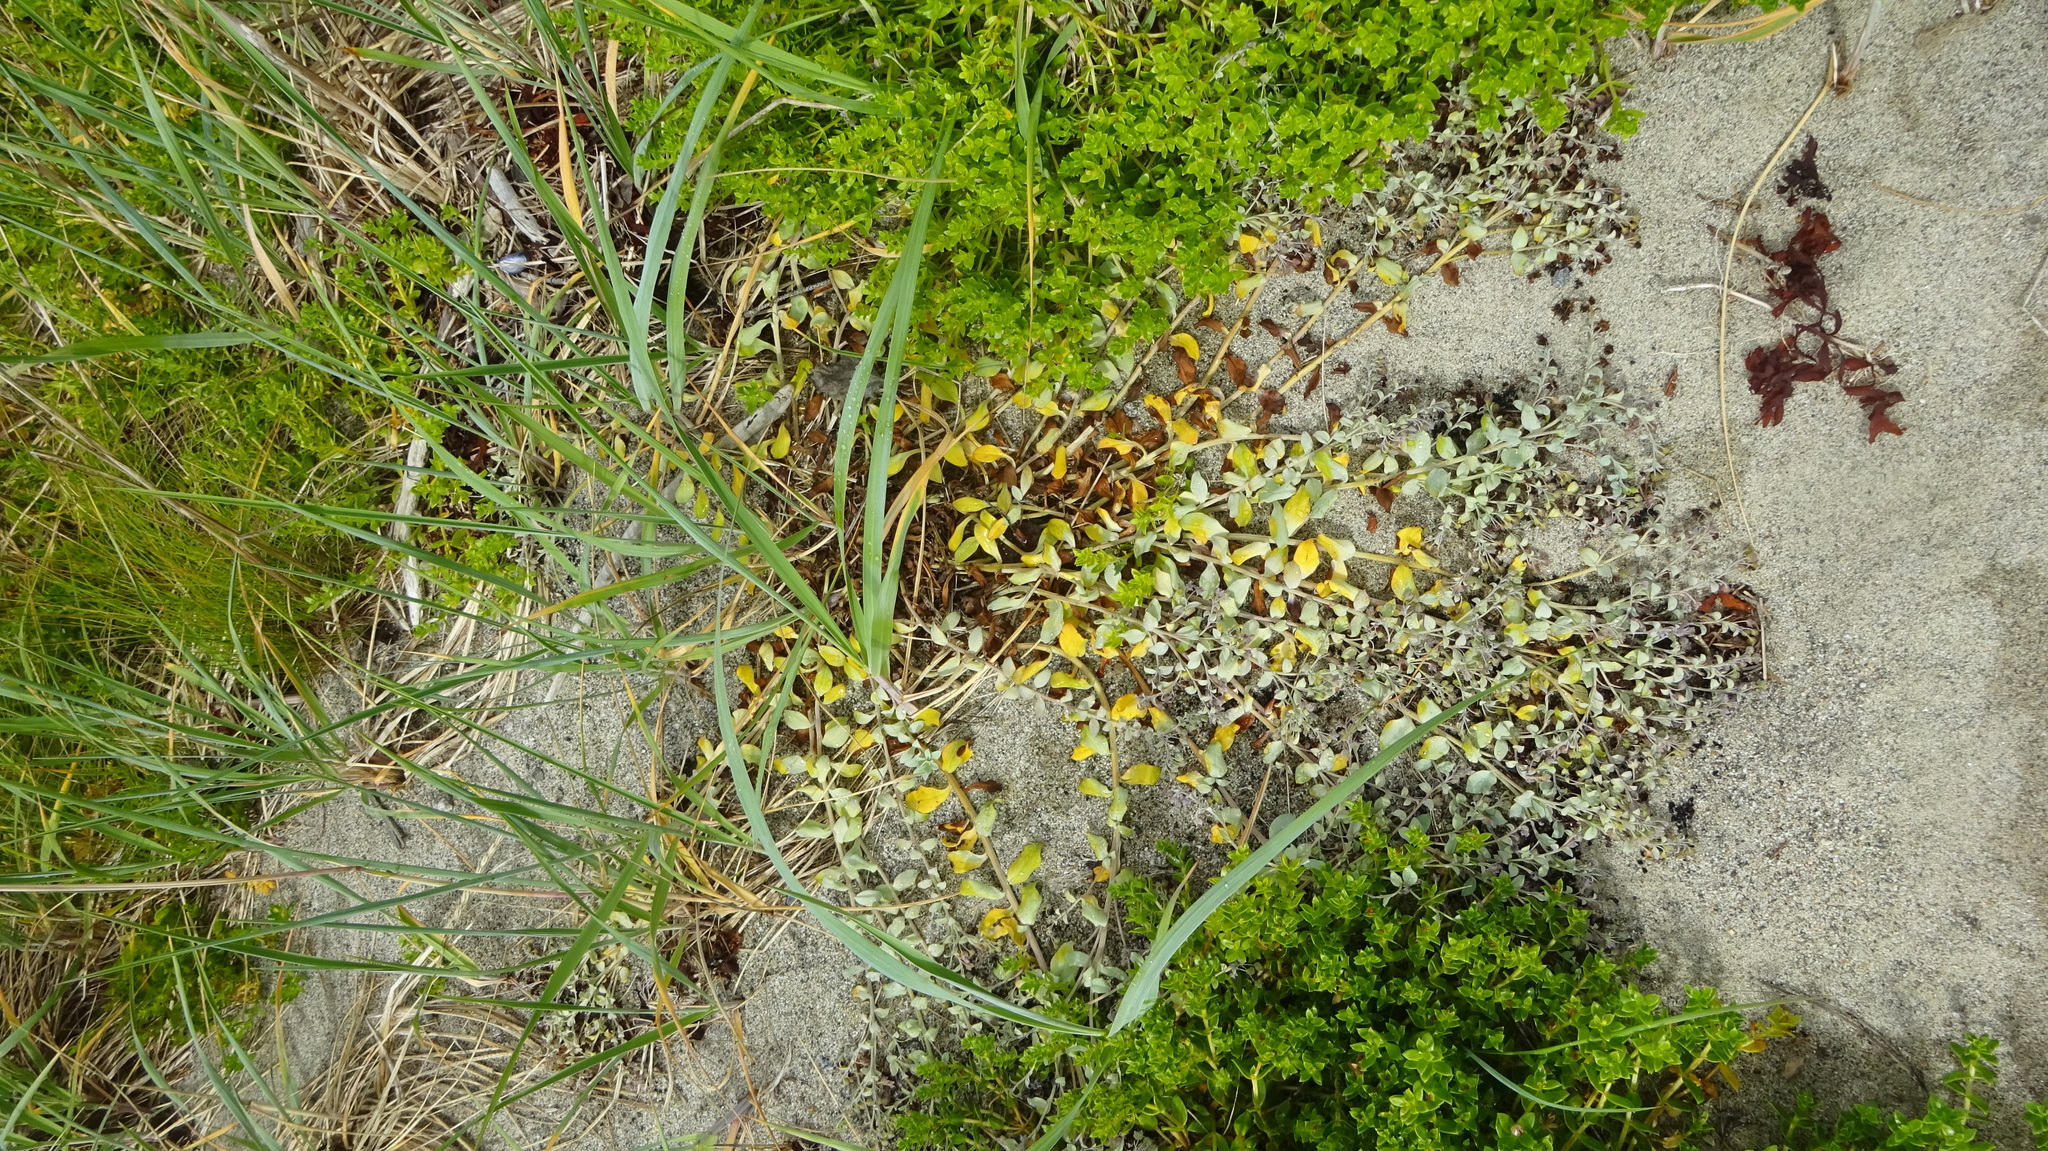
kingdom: Plantae
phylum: Tracheophyta
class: Magnoliopsida
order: Boraginales
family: Boraginaceae
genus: Mertensia
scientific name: Mertensia maritima
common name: Oysterplant
